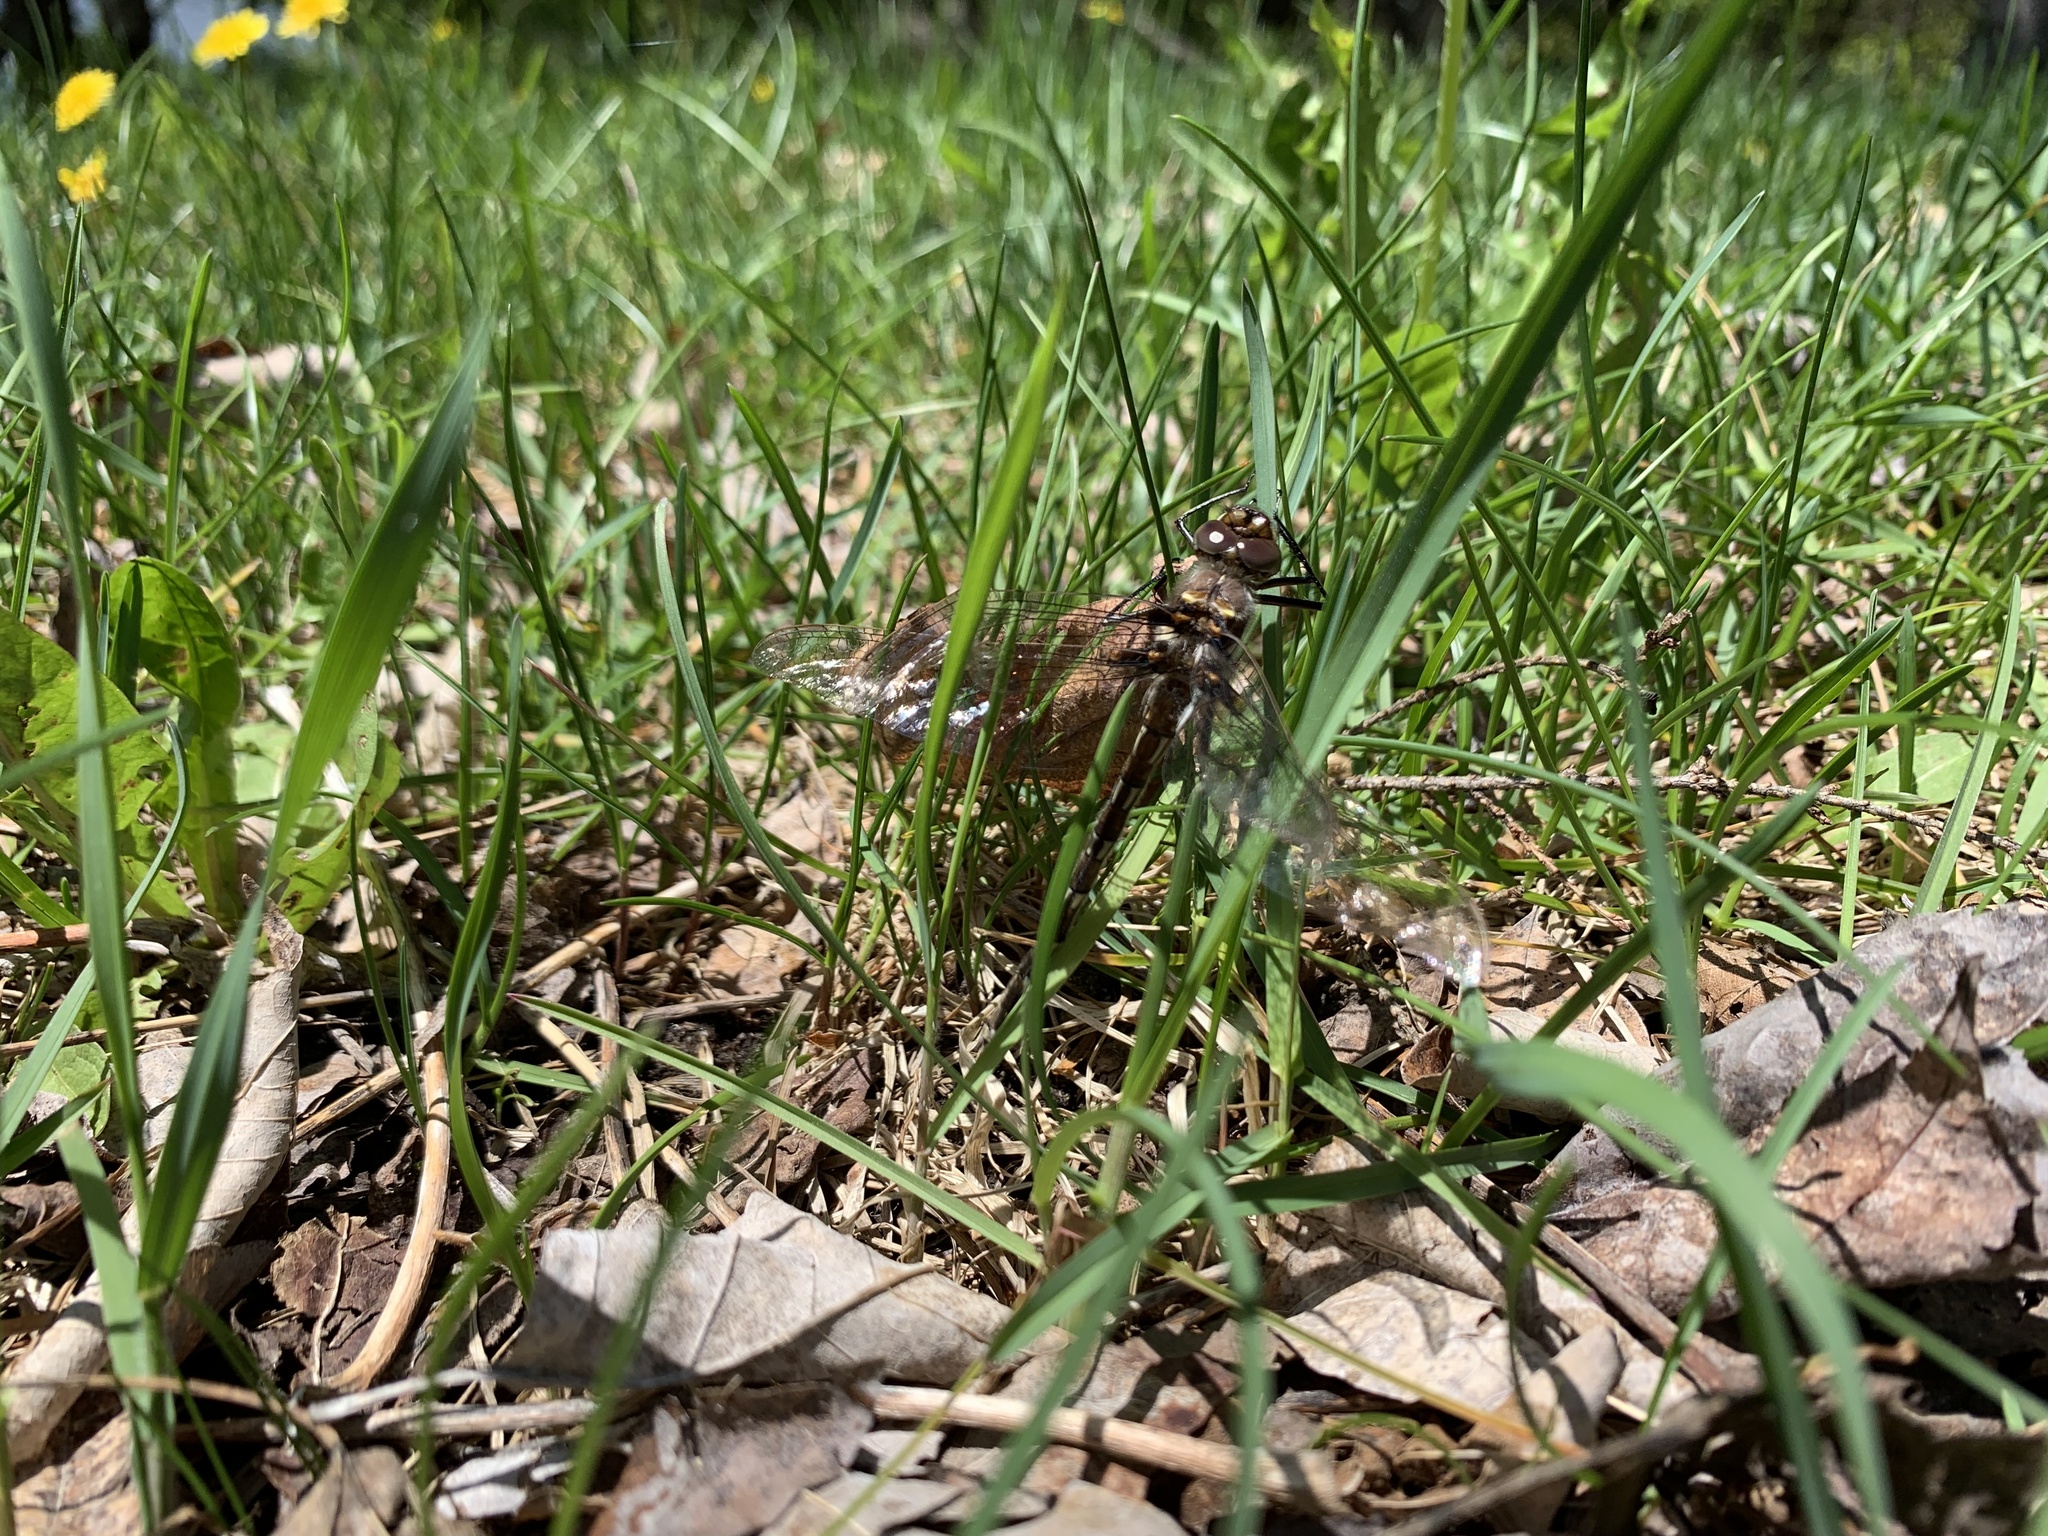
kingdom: Animalia
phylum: Arthropoda
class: Insecta
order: Odonata
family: Macromiidae
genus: Didymops
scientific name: Didymops transversa
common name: Stream cruiser
